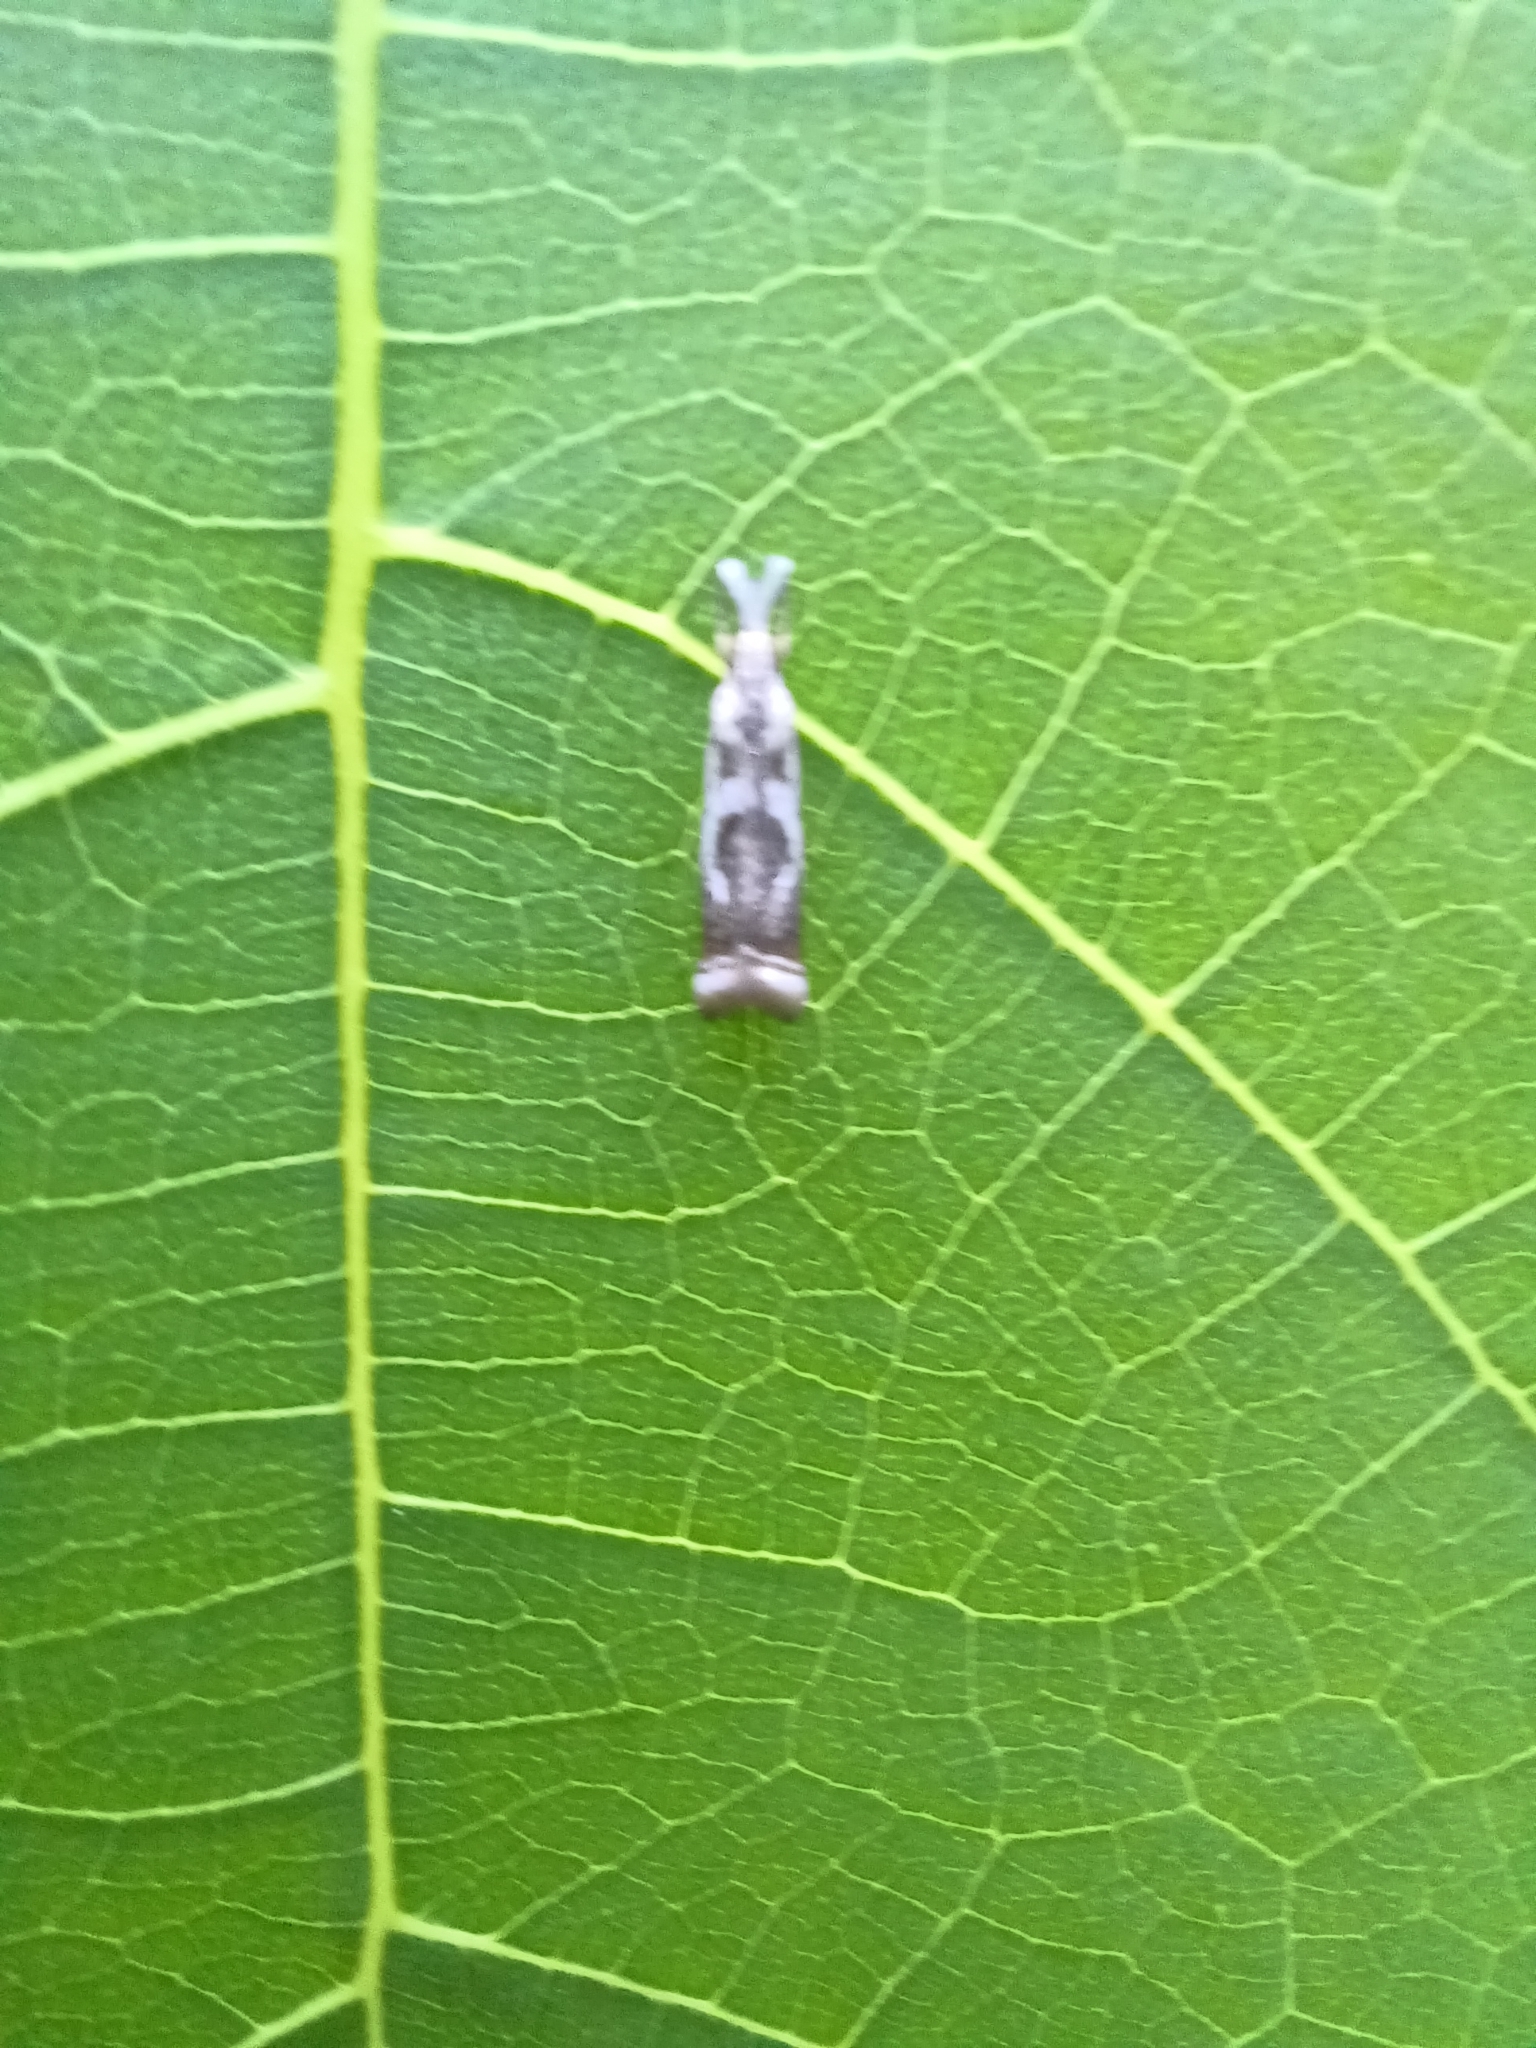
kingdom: Animalia
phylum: Arthropoda
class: Insecta
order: Lepidoptera
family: Crambidae
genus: Microcrambus
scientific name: Microcrambus elegans
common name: Elegant grass-veneer
